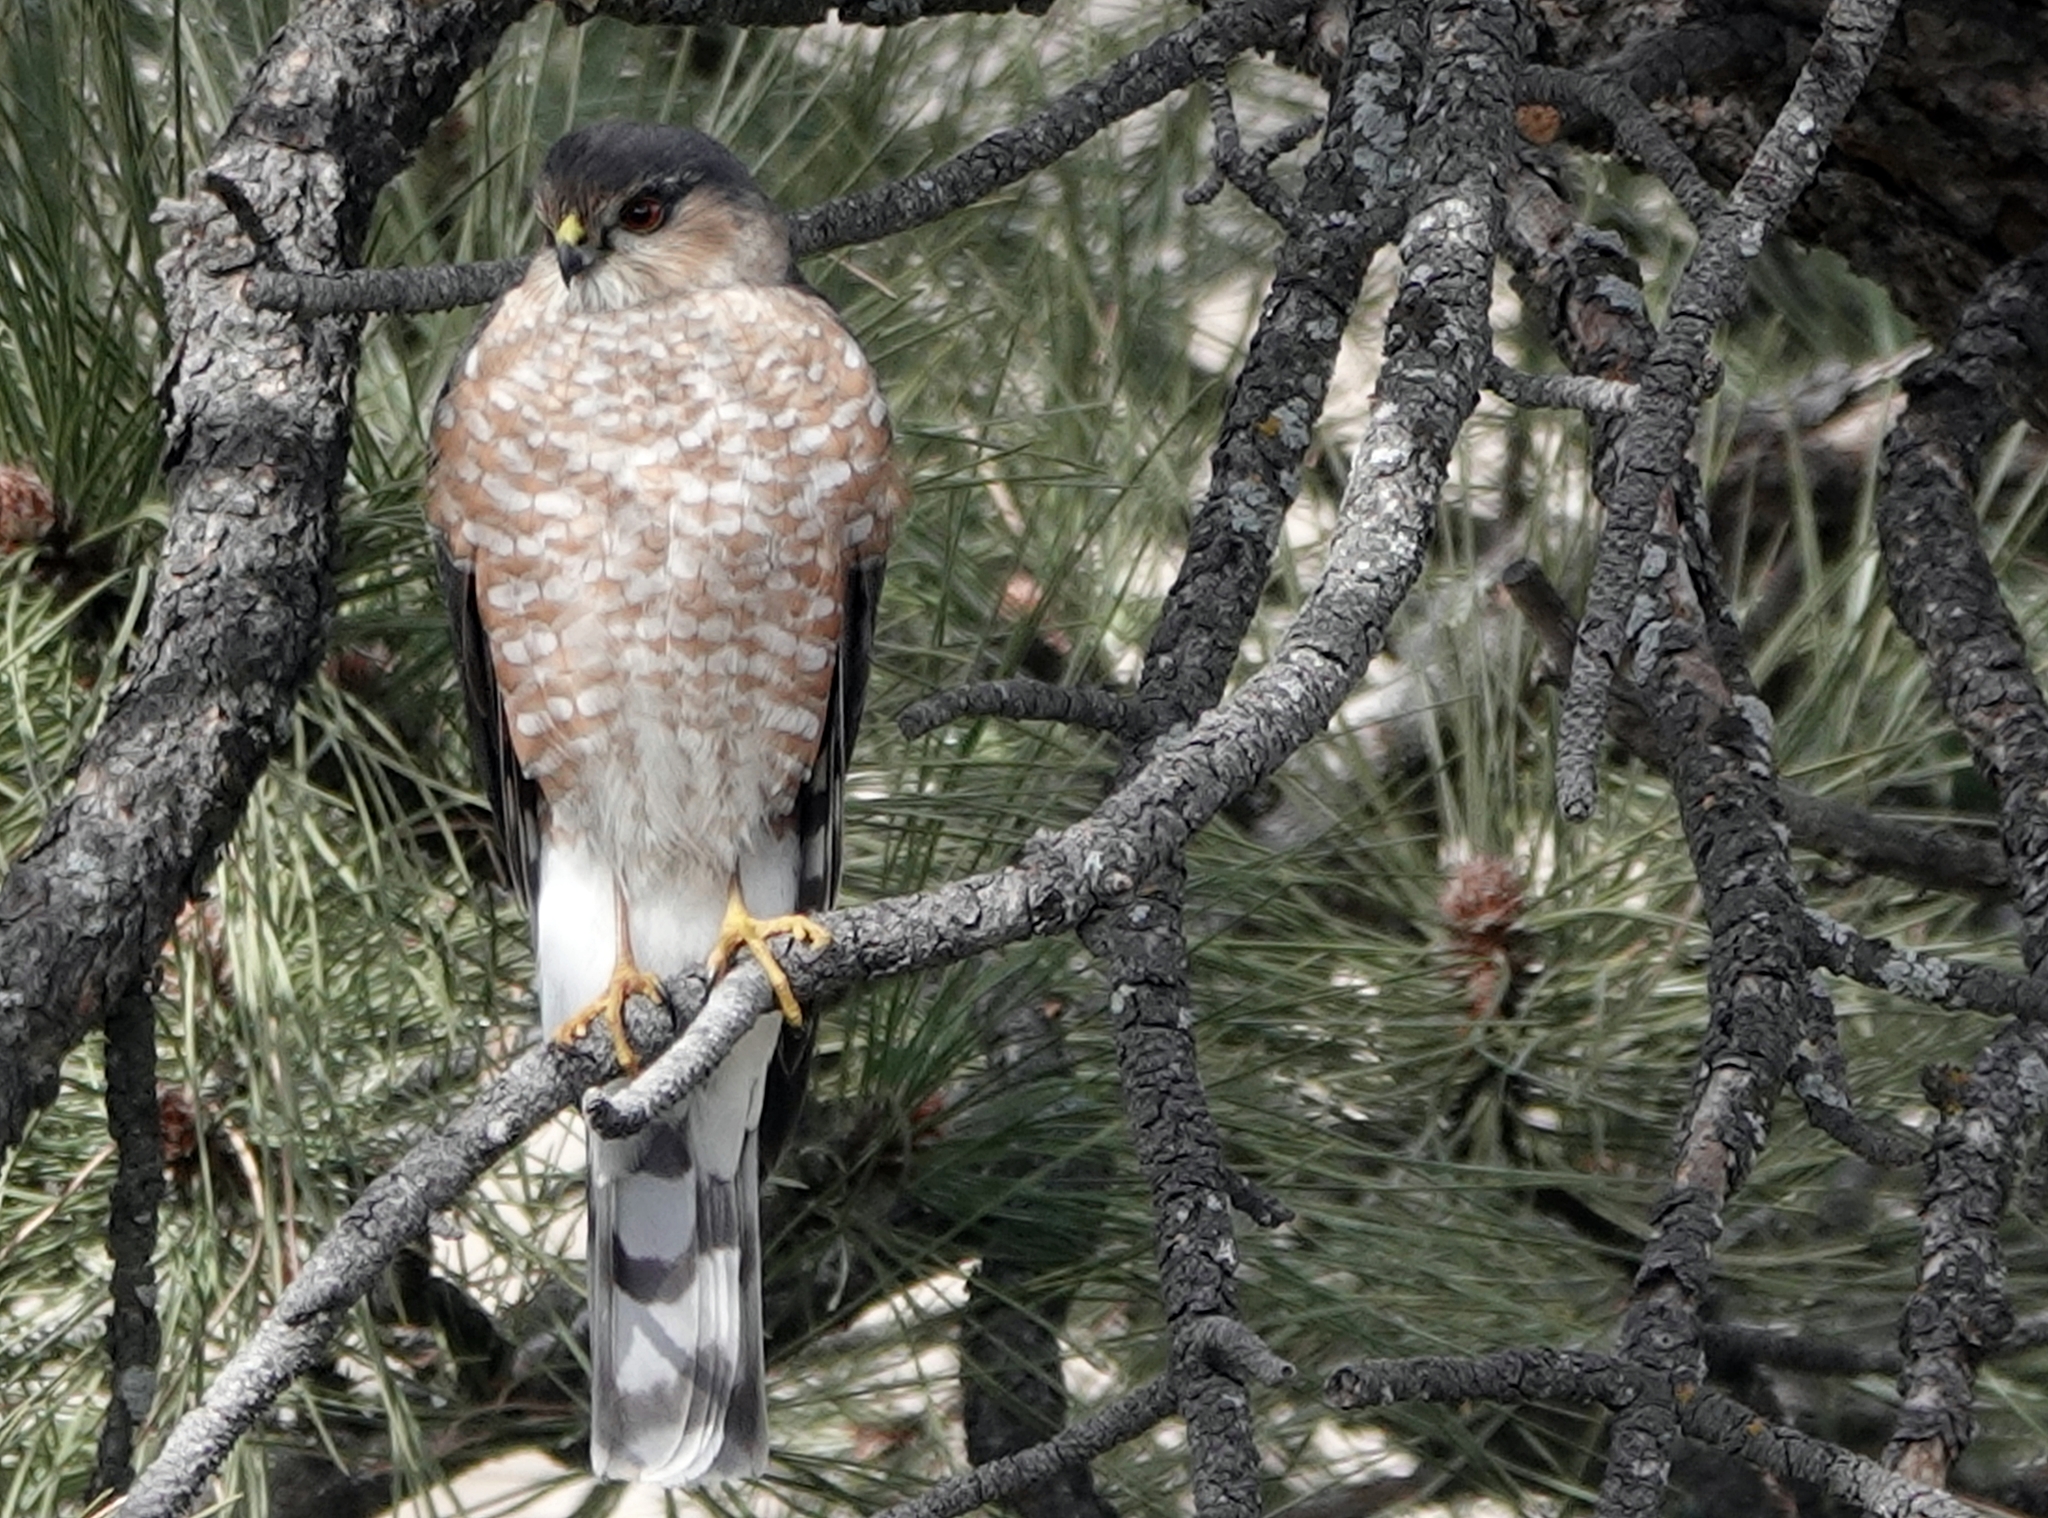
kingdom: Animalia
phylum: Chordata
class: Aves
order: Accipitriformes
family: Accipitridae
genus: Accipiter
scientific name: Accipiter striatus
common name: Sharp-shinned hawk
